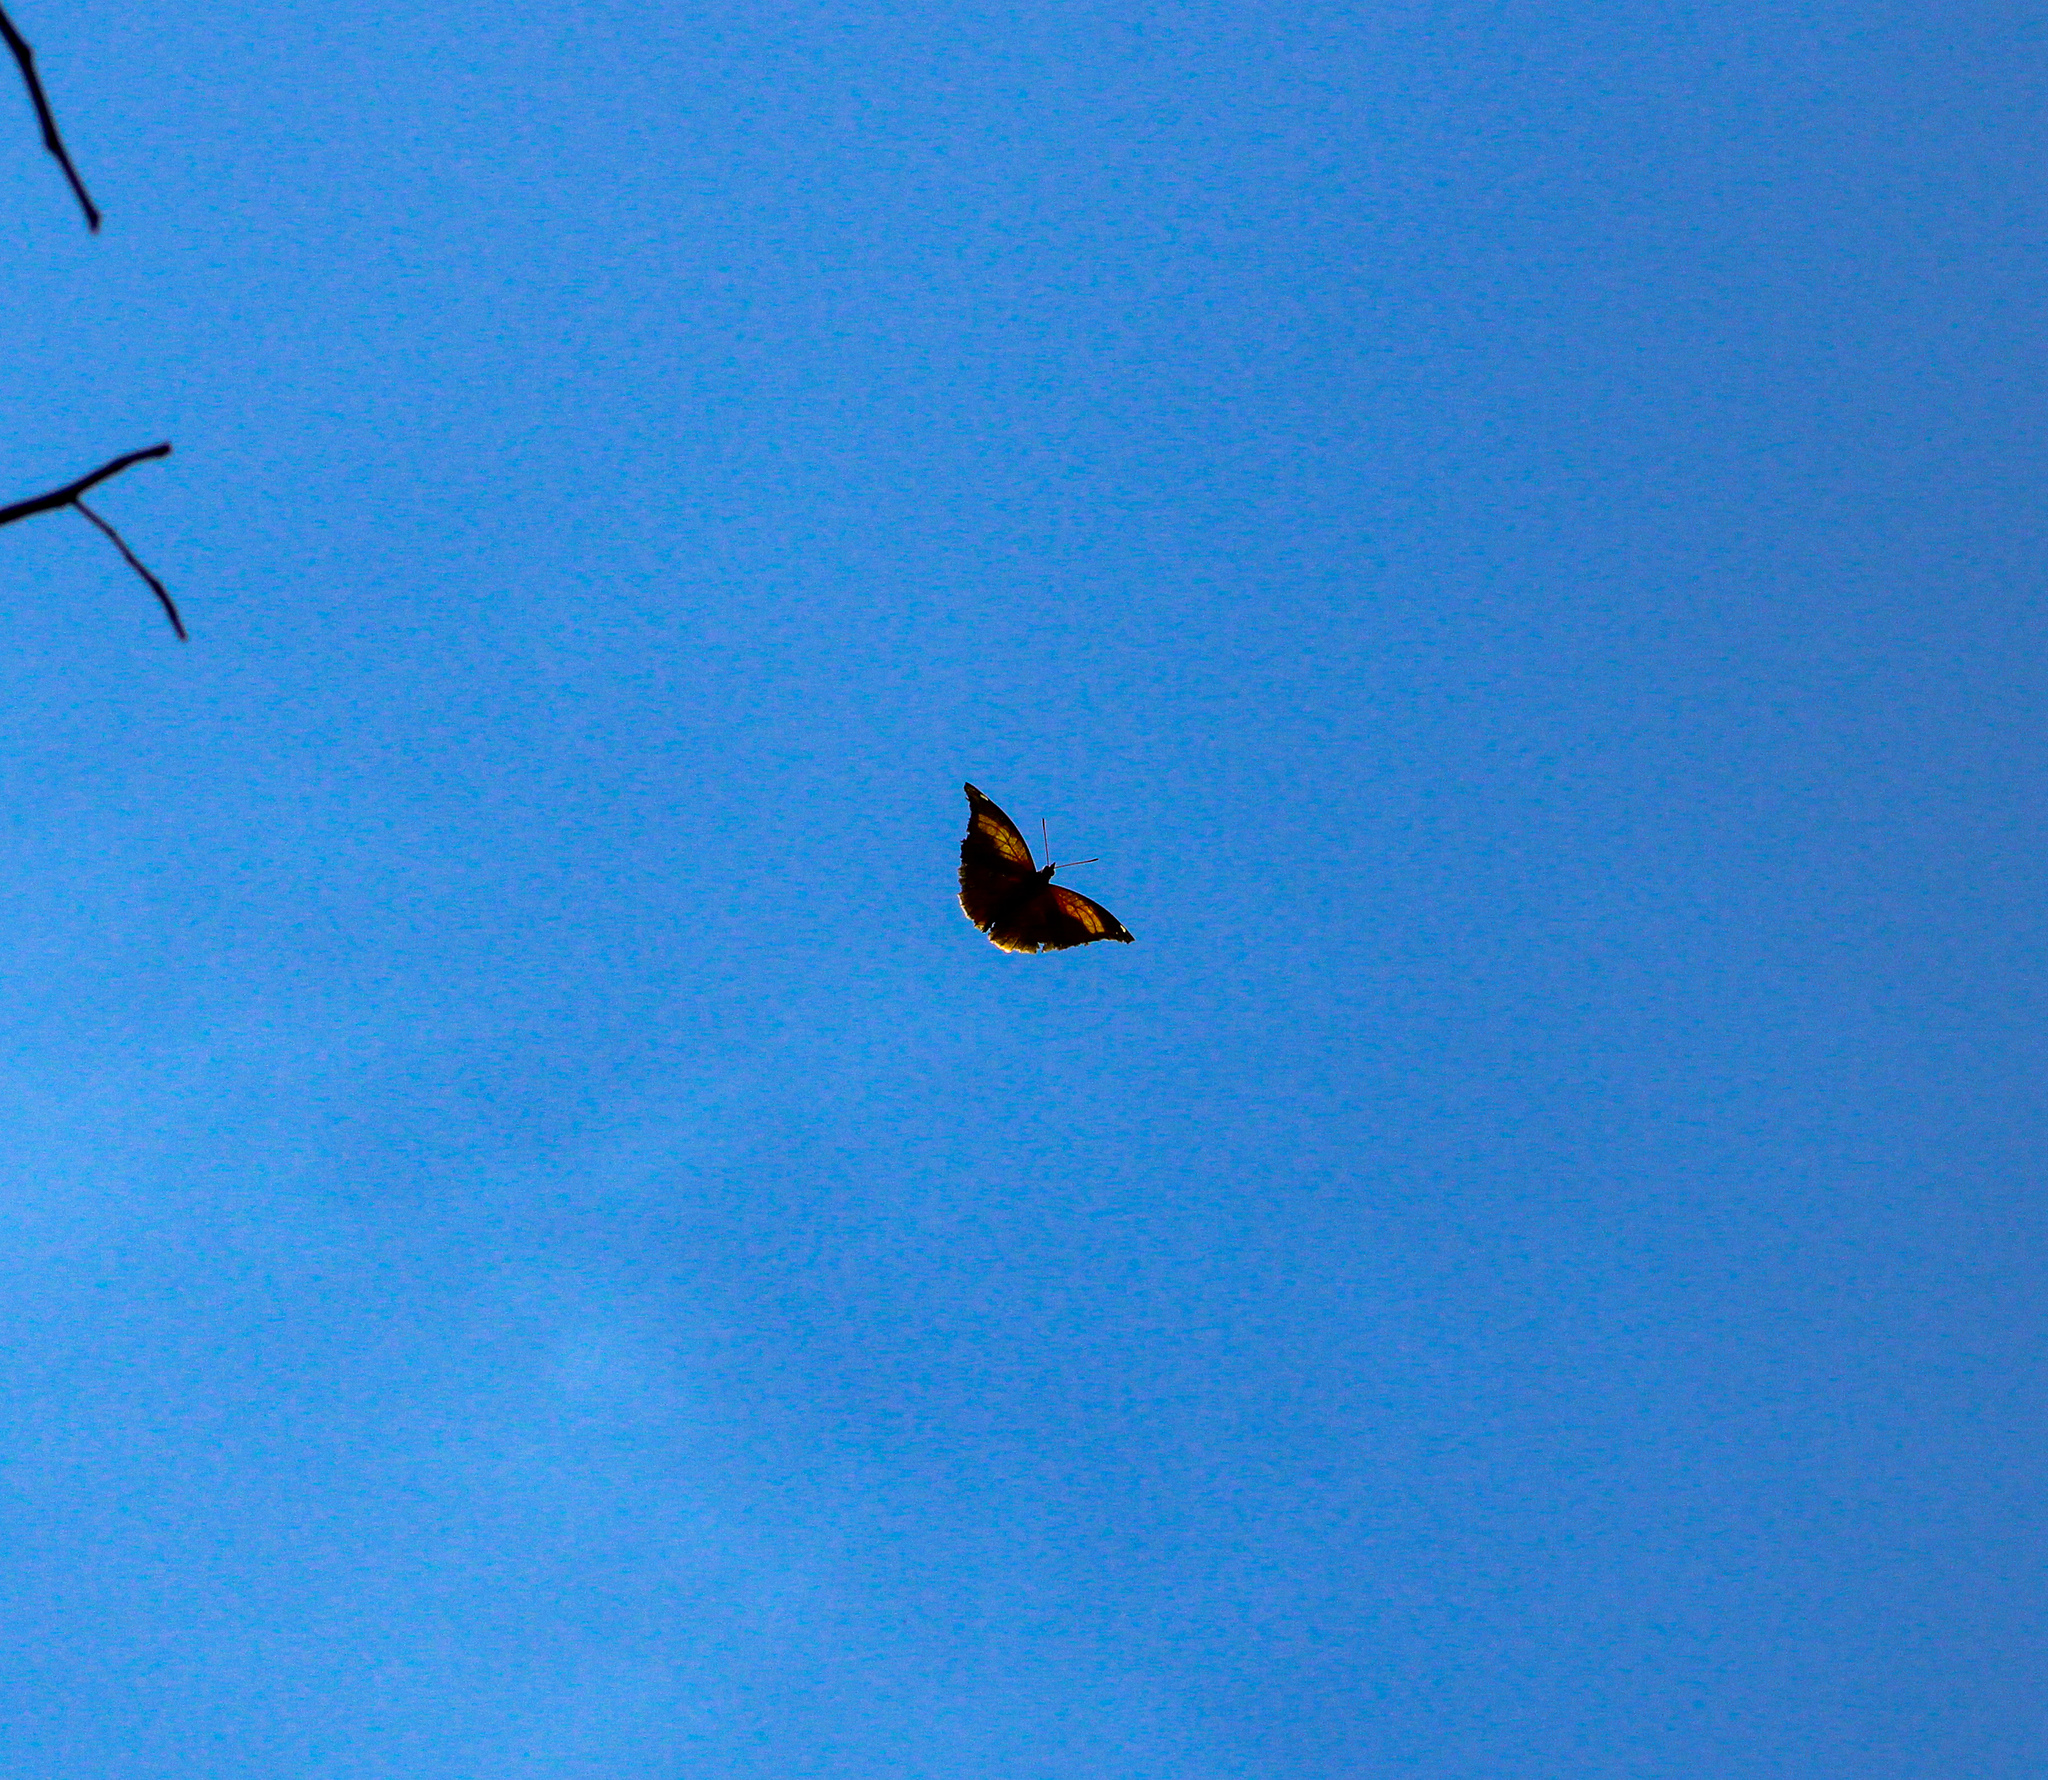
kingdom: Animalia
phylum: Arthropoda
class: Insecta
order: Lepidoptera
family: Nymphalidae
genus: Historis
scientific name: Historis odius
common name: Orion cecropian
